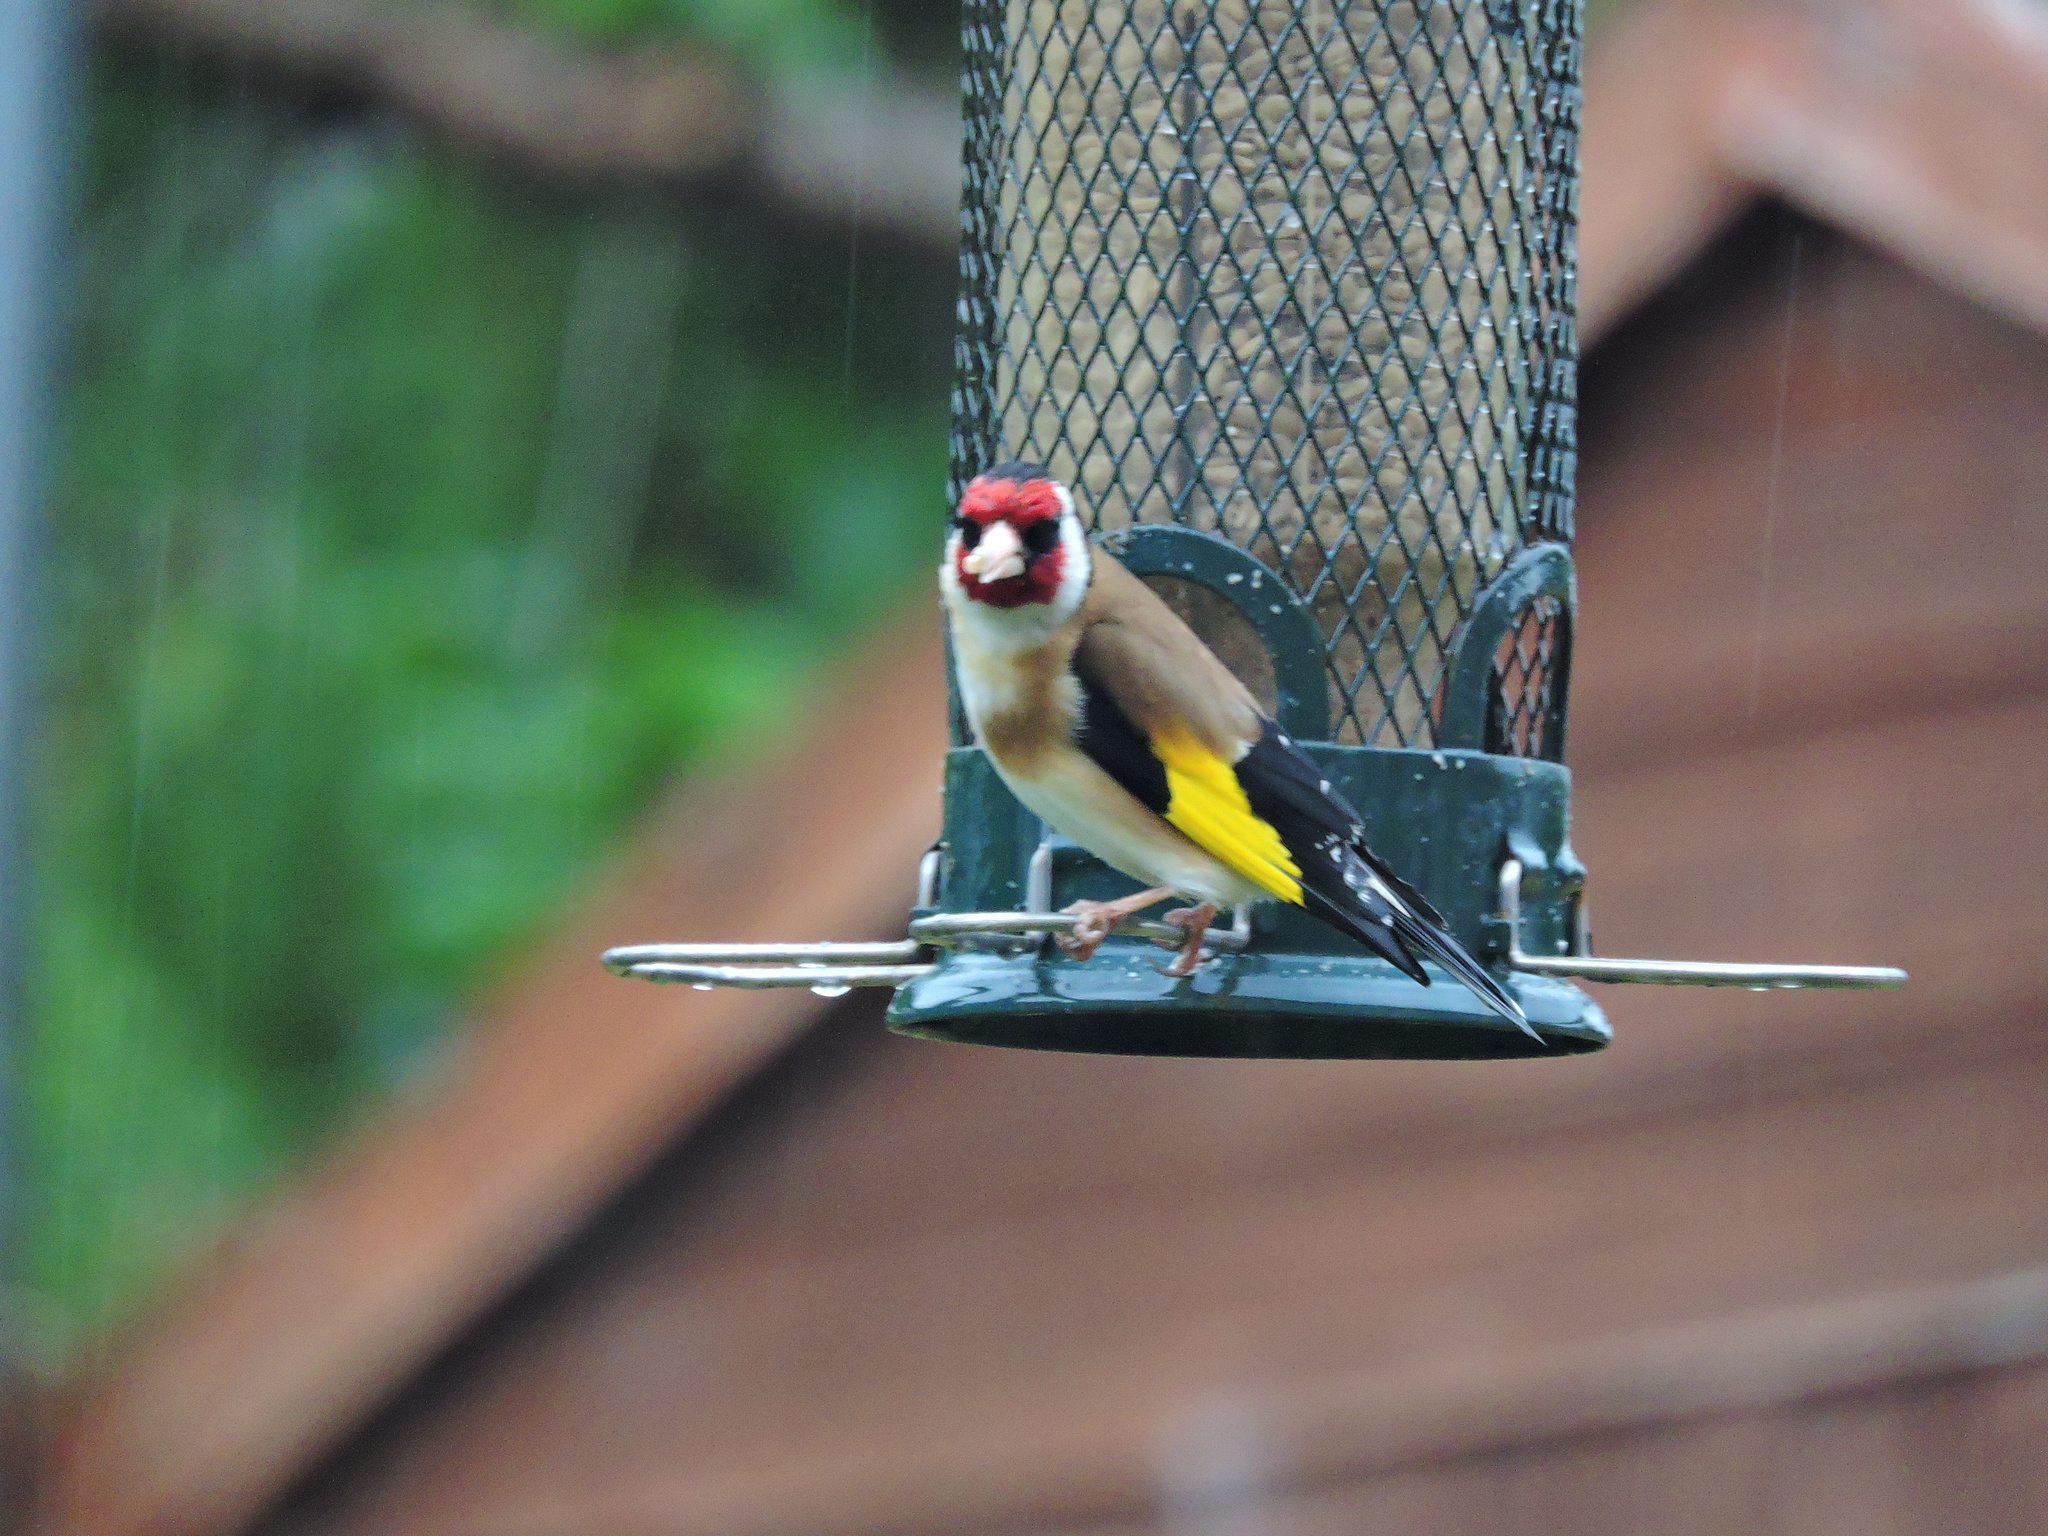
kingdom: Animalia
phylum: Chordata
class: Aves
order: Passeriformes
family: Fringillidae
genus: Carduelis
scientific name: Carduelis carduelis
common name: European goldfinch
